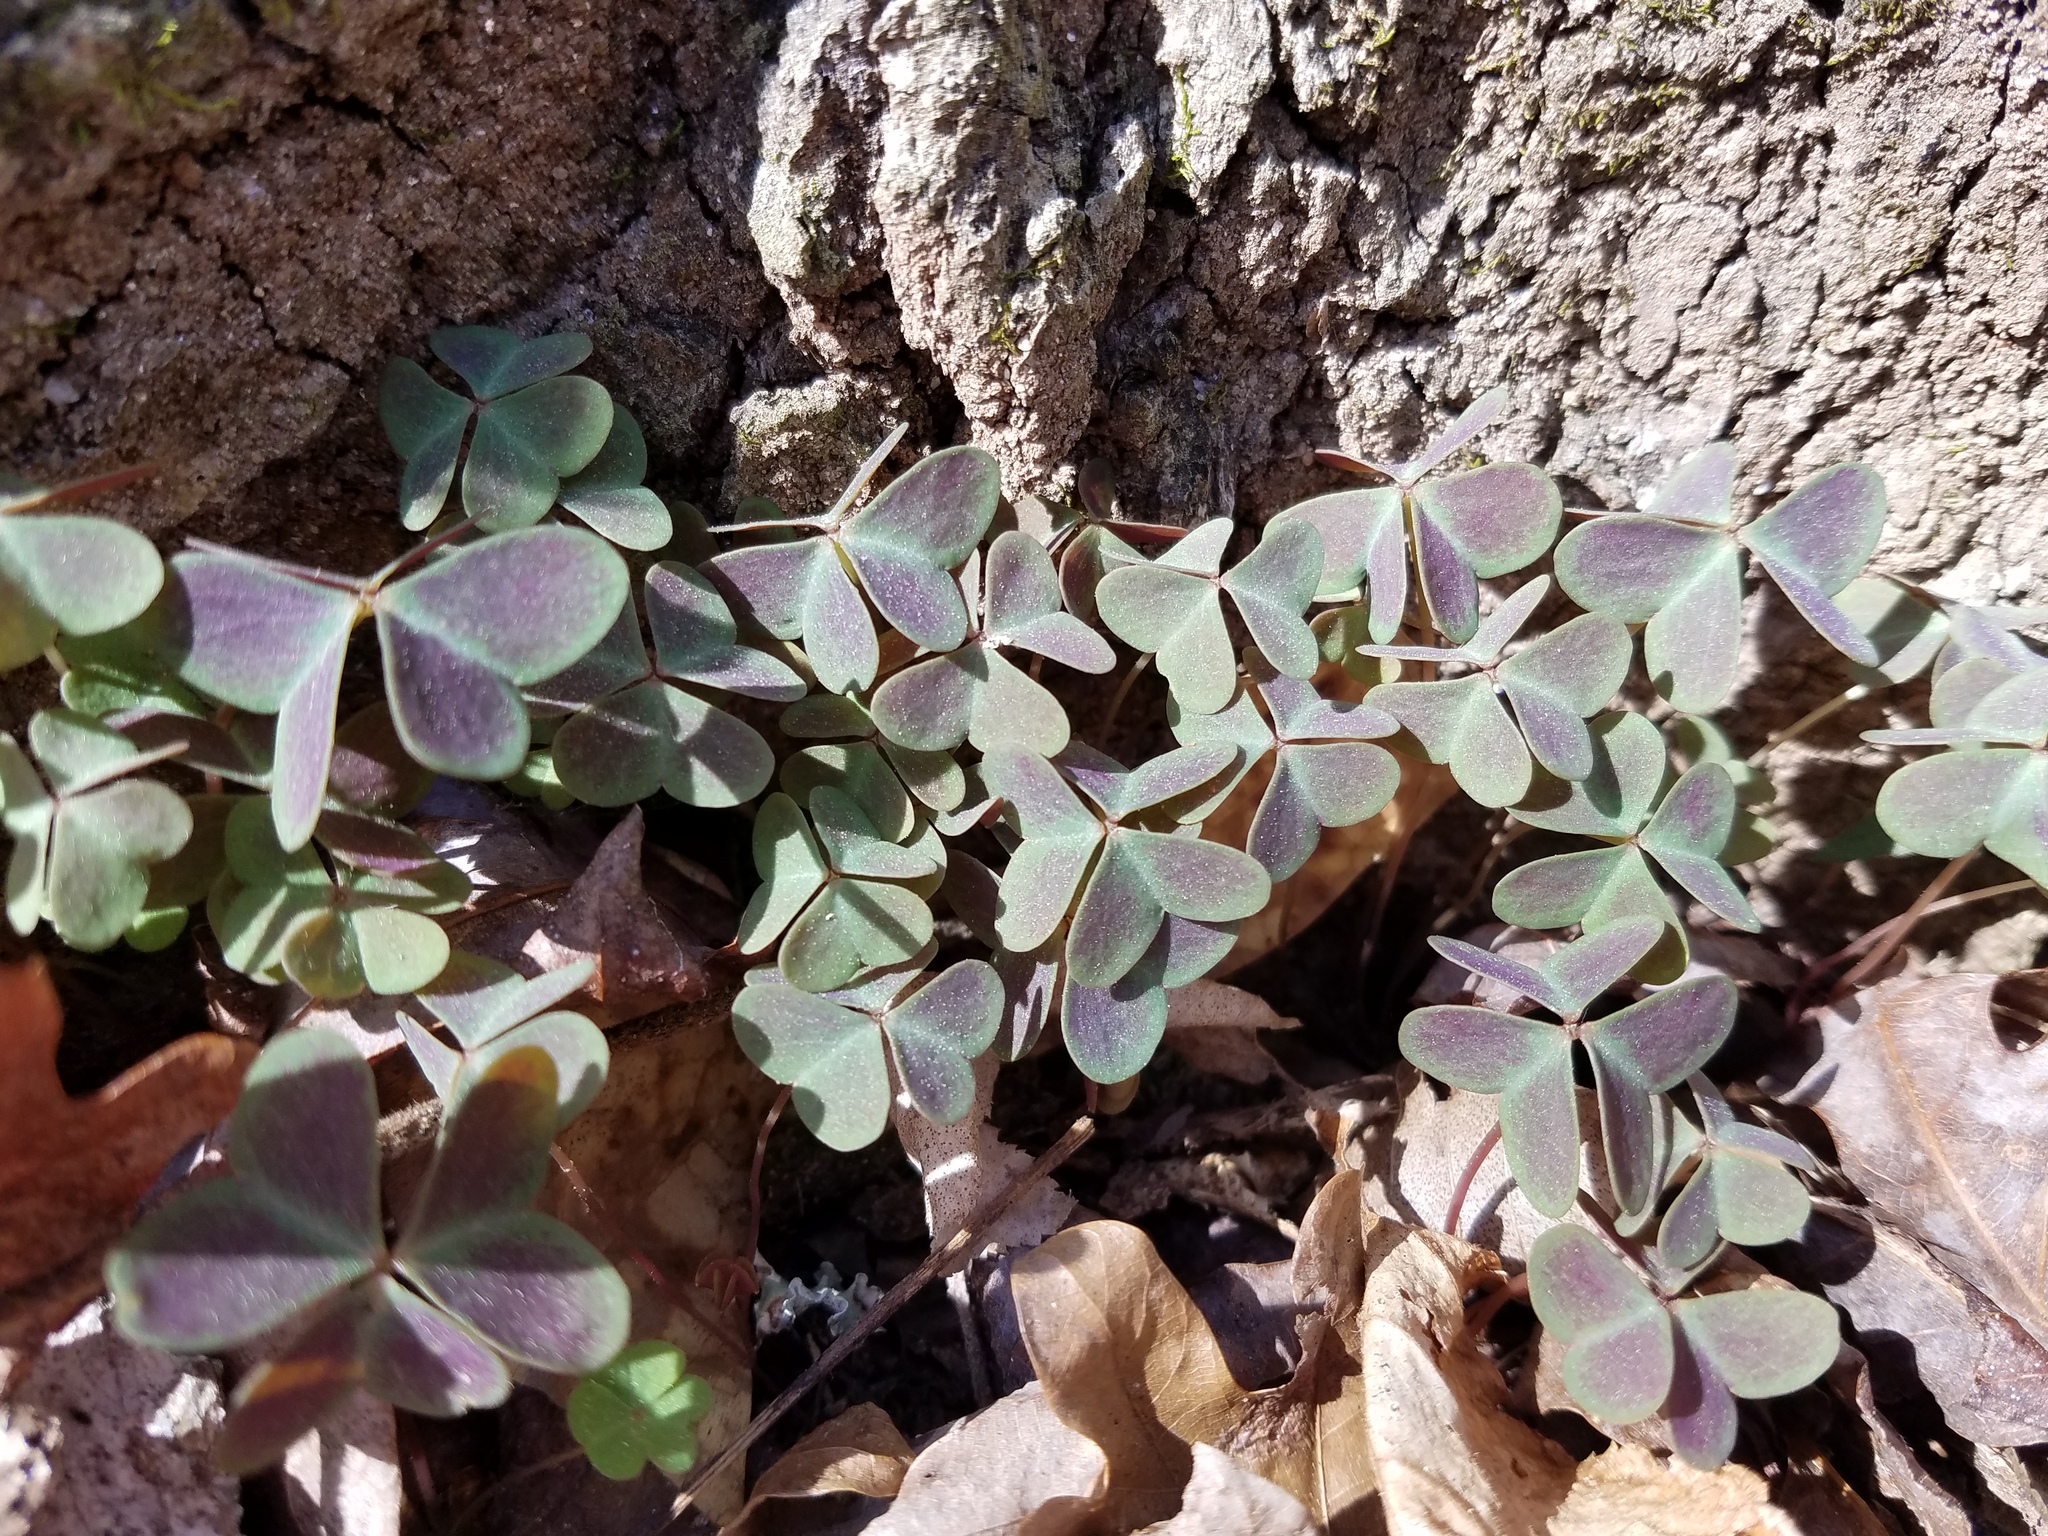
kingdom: Plantae
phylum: Tracheophyta
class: Magnoliopsida
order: Oxalidales
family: Oxalidaceae
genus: Oxalis
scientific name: Oxalis violacea
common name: Violet wood-sorrel
